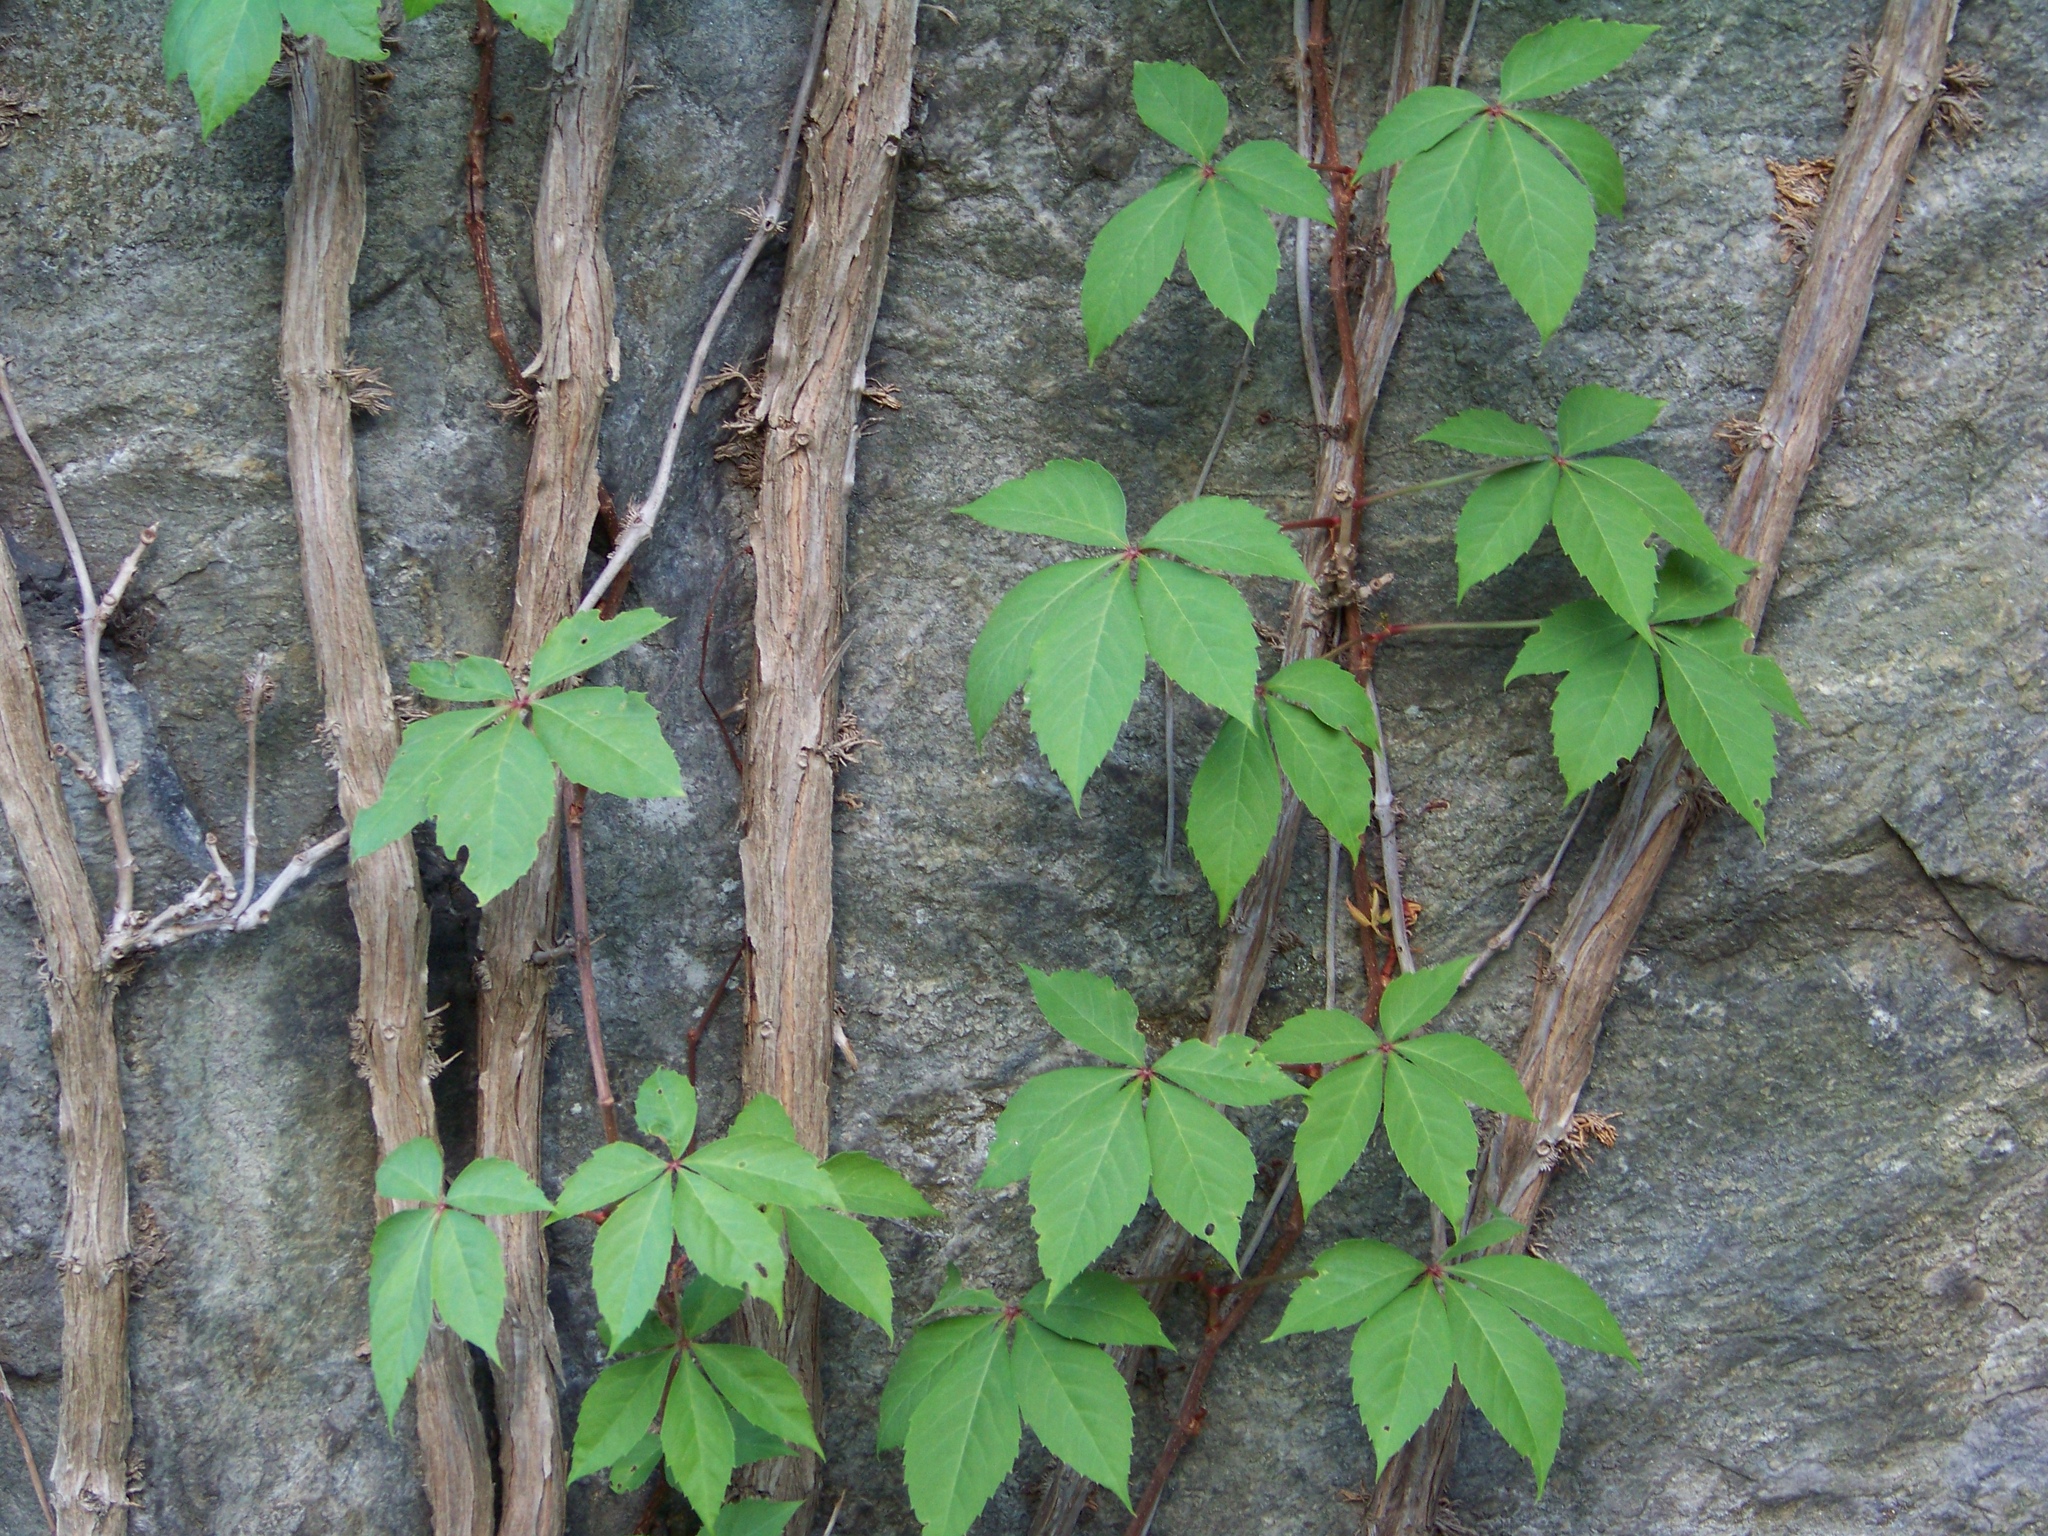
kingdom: Plantae
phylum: Tracheophyta
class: Magnoliopsida
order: Vitales
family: Vitaceae
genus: Parthenocissus
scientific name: Parthenocissus quinquefolia
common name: Virginia-creeper
